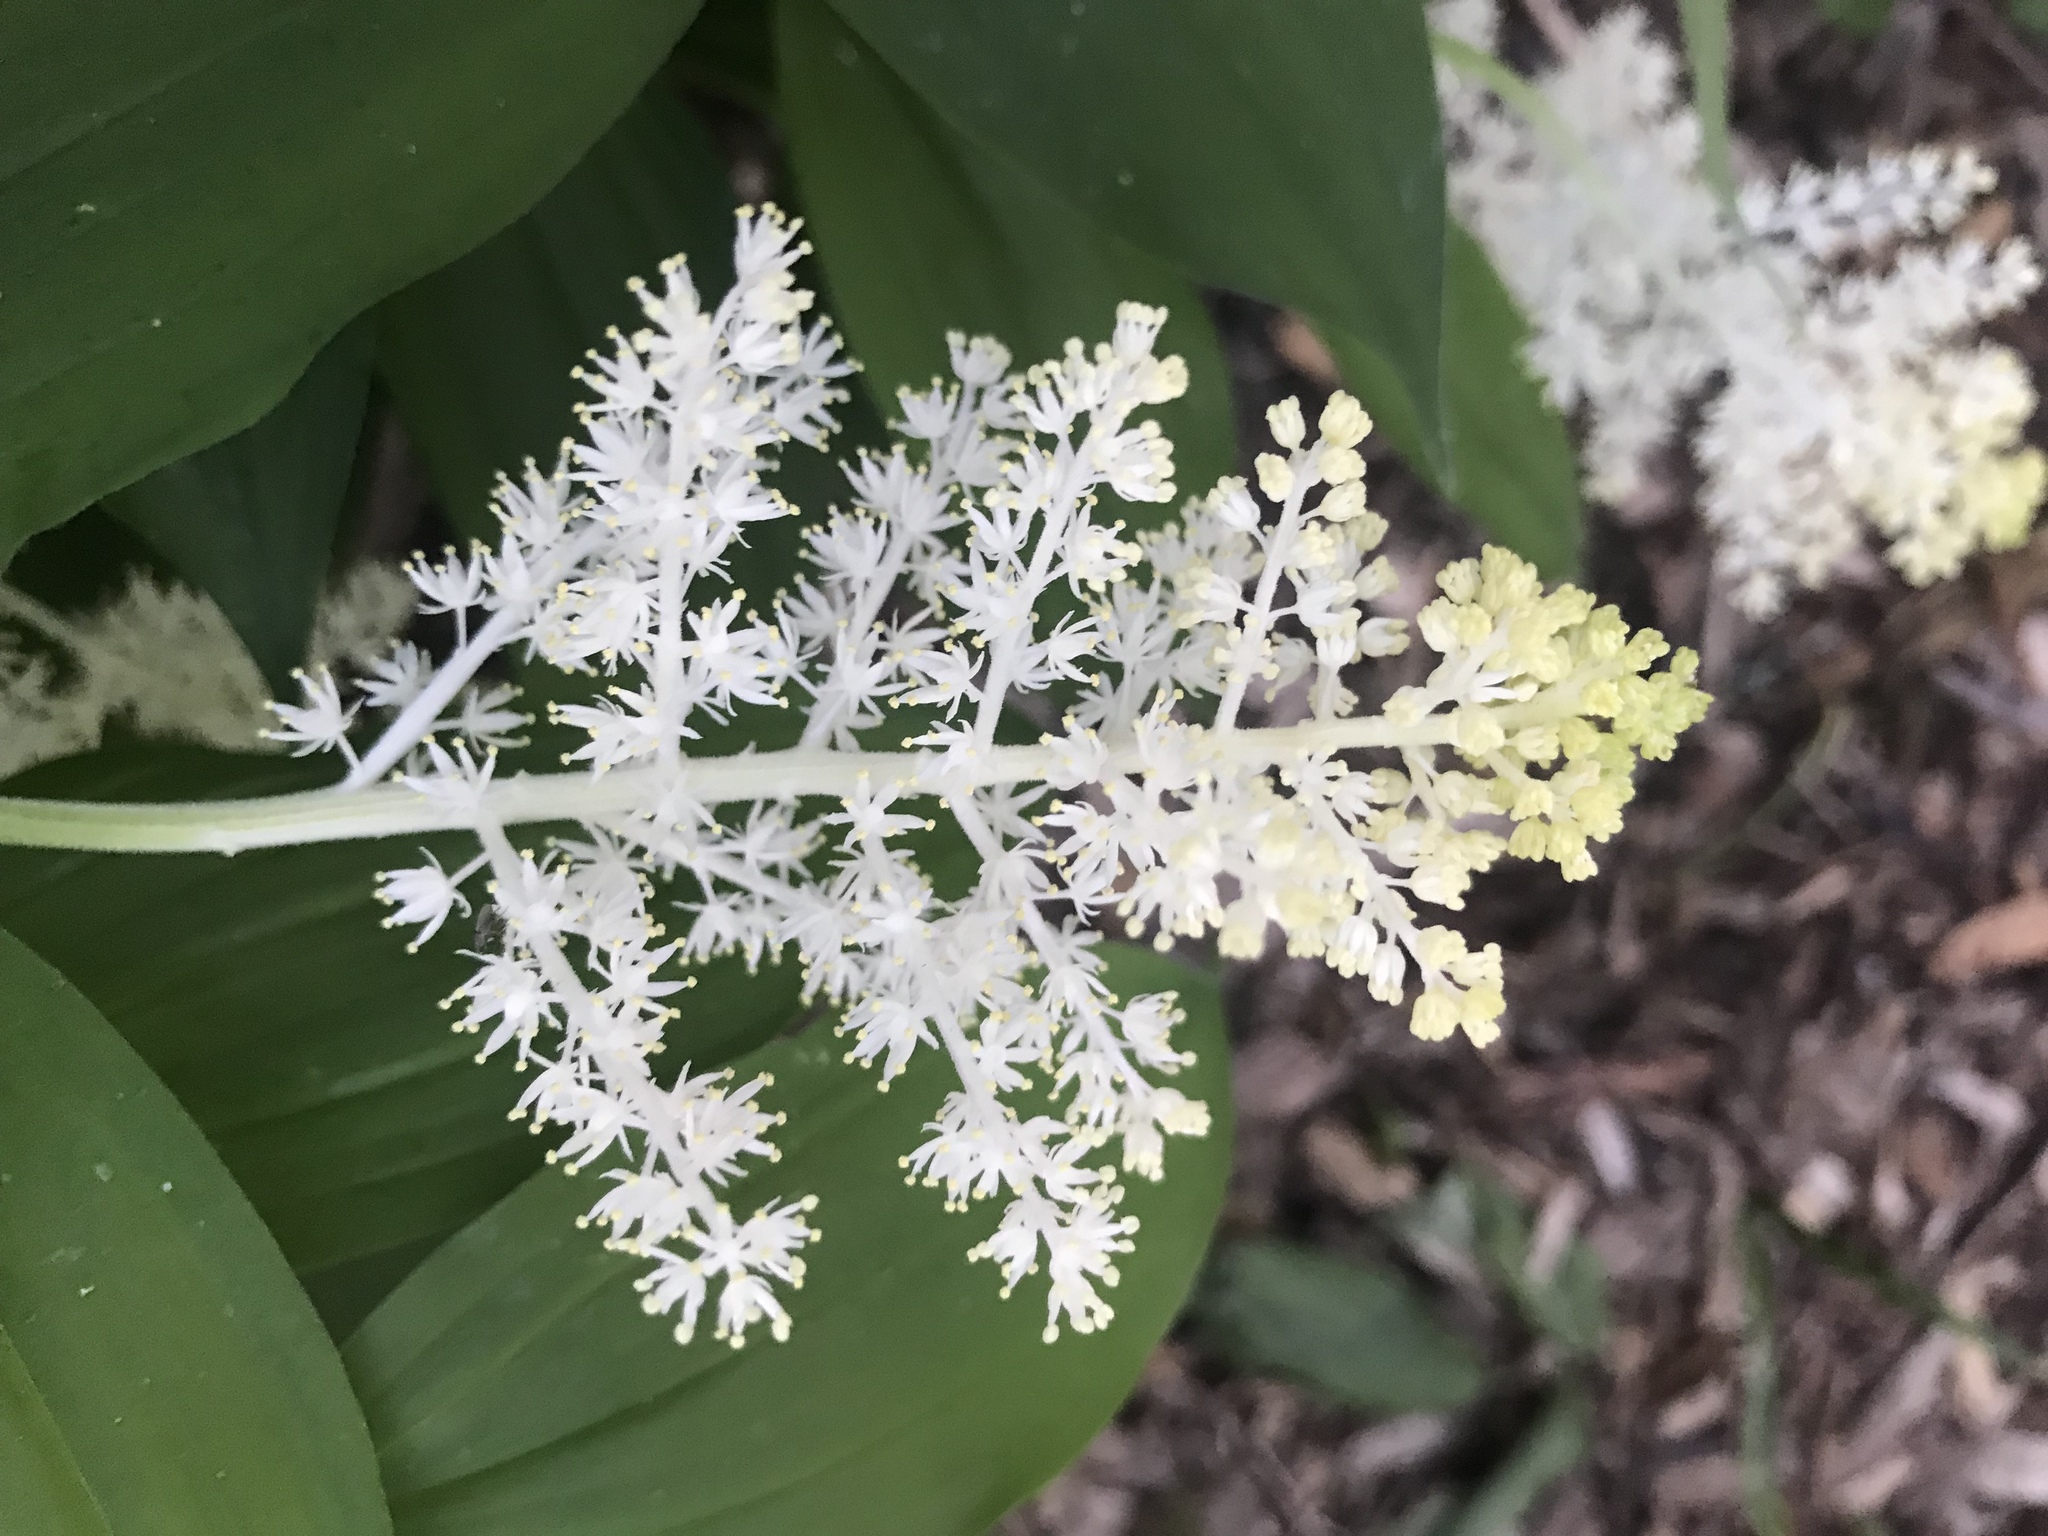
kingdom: Plantae
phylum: Tracheophyta
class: Liliopsida
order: Asparagales
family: Asparagaceae
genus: Maianthemum
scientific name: Maianthemum racemosum
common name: False spikenard
